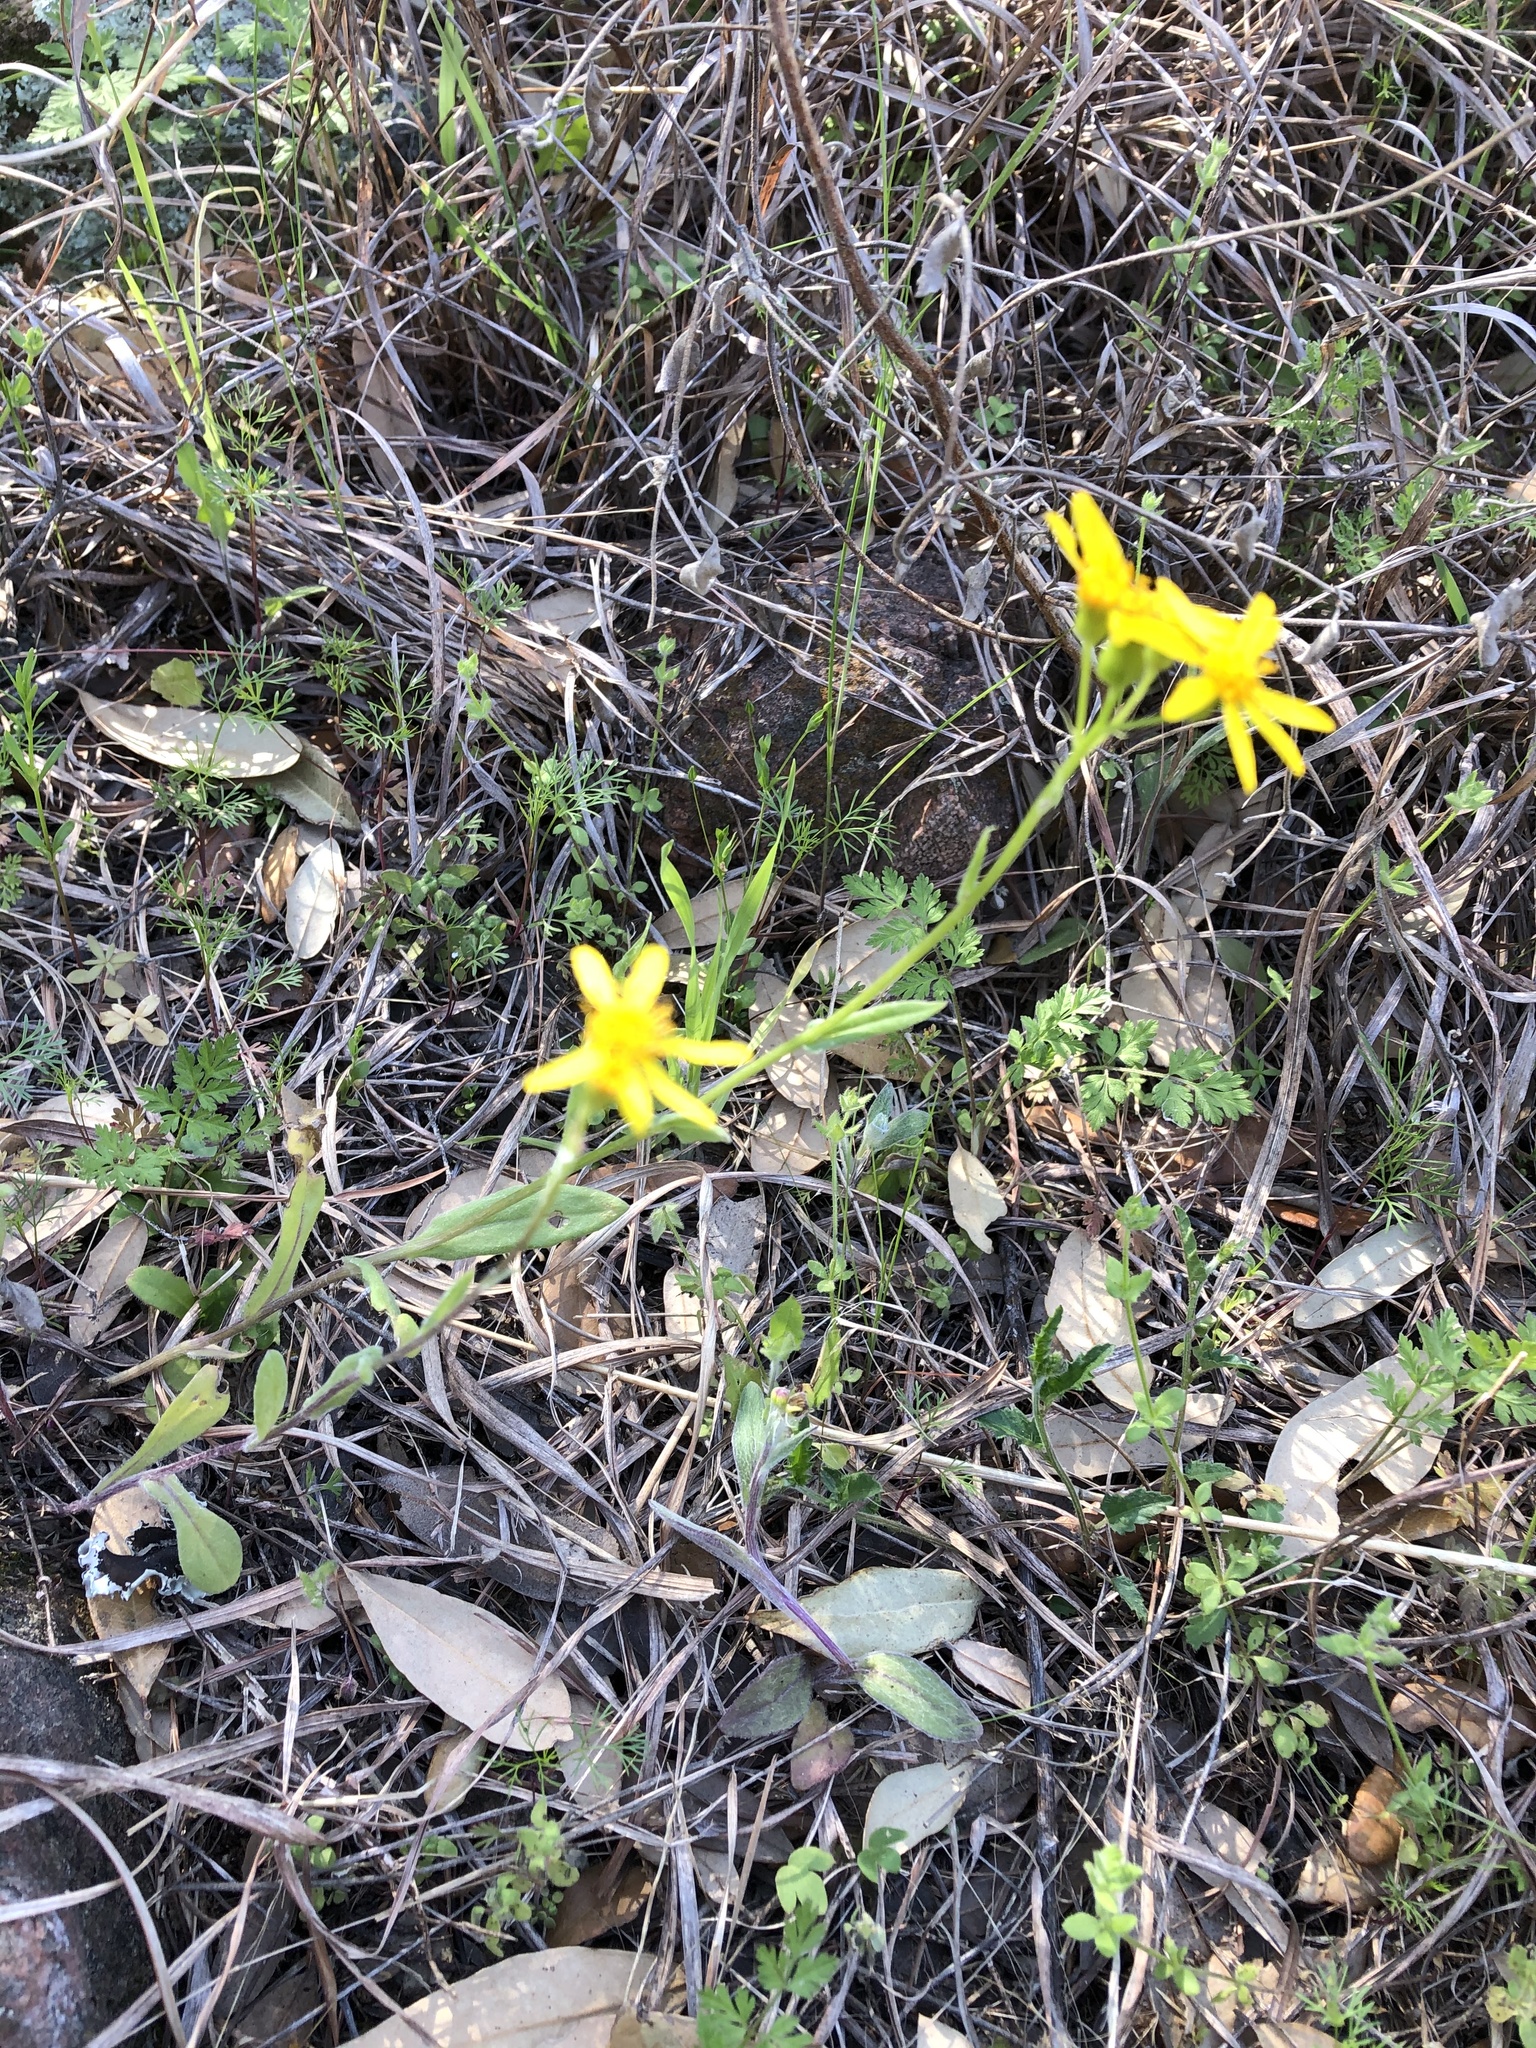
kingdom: Plantae
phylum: Tracheophyta
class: Magnoliopsida
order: Asterales
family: Asteraceae
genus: Senecio
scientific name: Senecio ampullaceus
